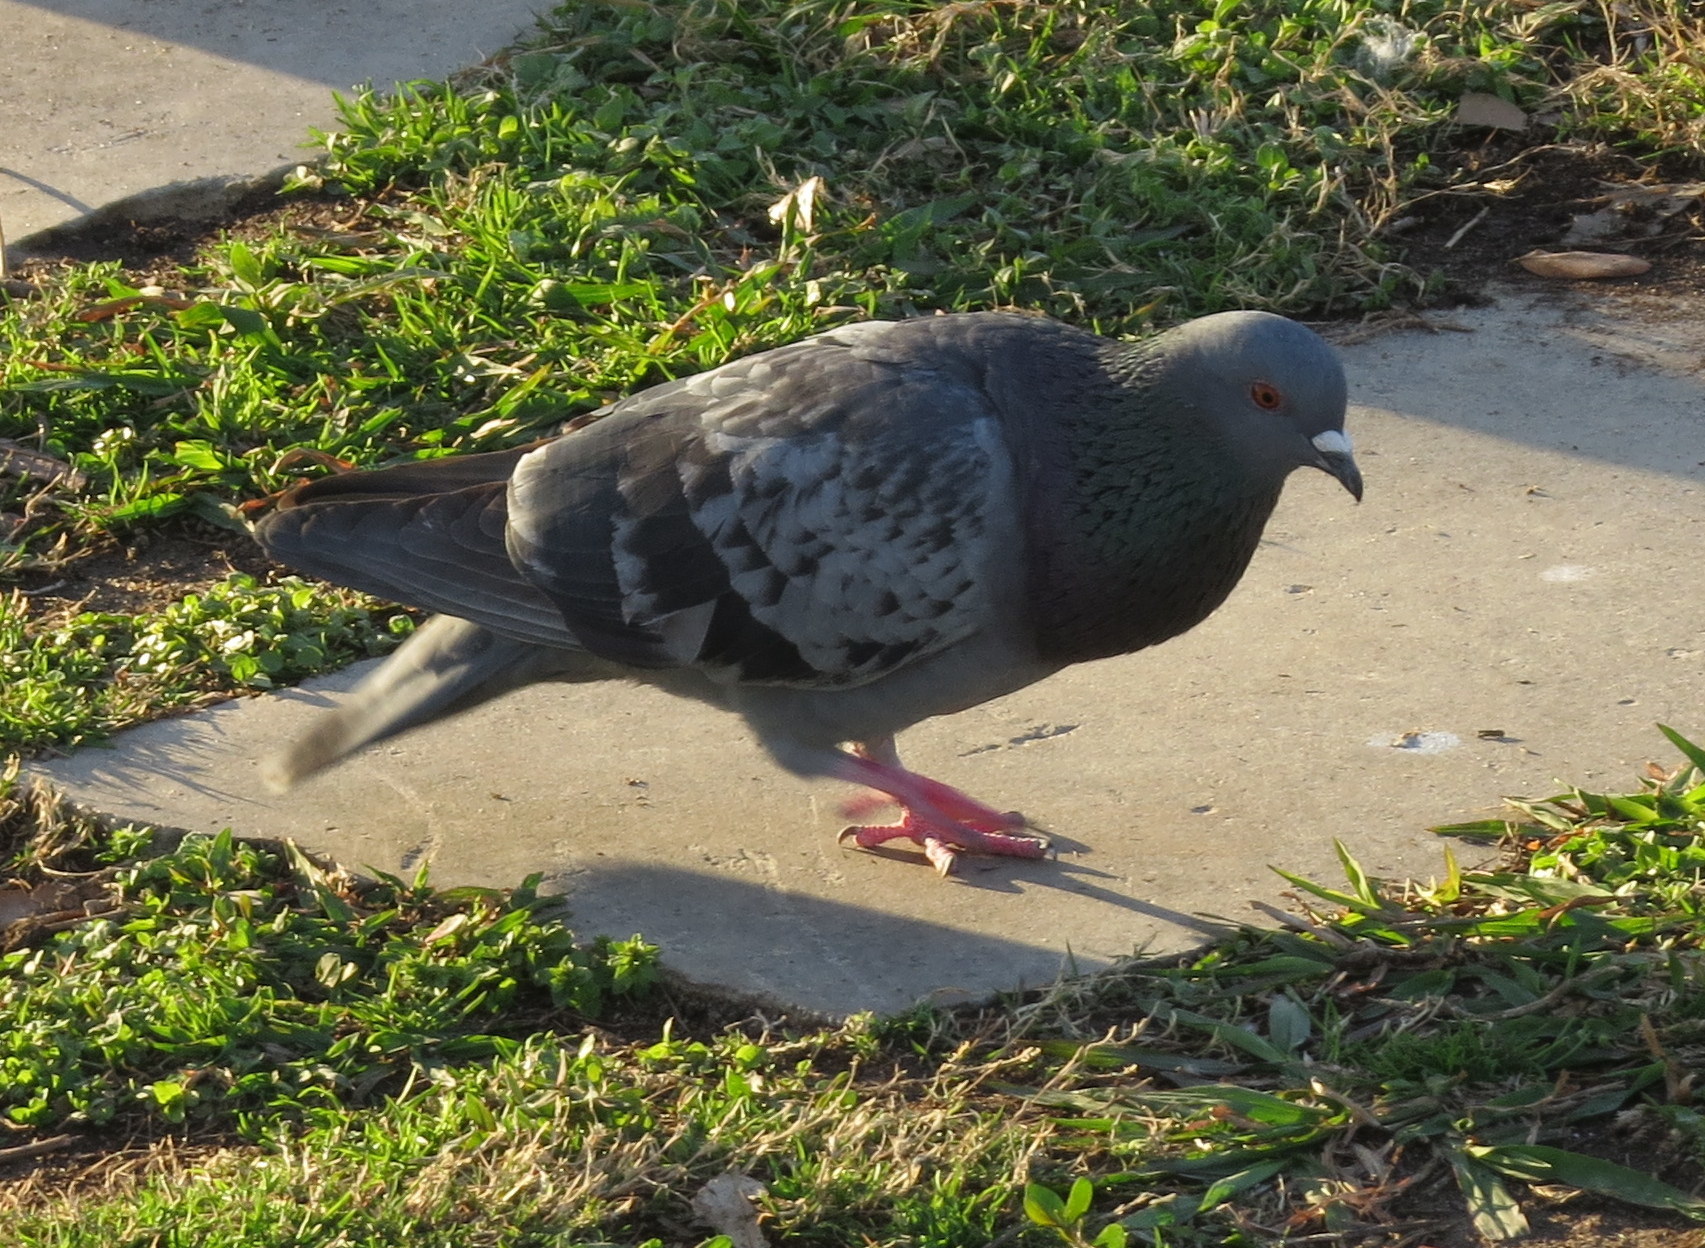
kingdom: Animalia
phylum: Chordata
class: Aves
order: Columbiformes
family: Columbidae
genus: Columba
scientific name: Columba livia
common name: Rock pigeon
